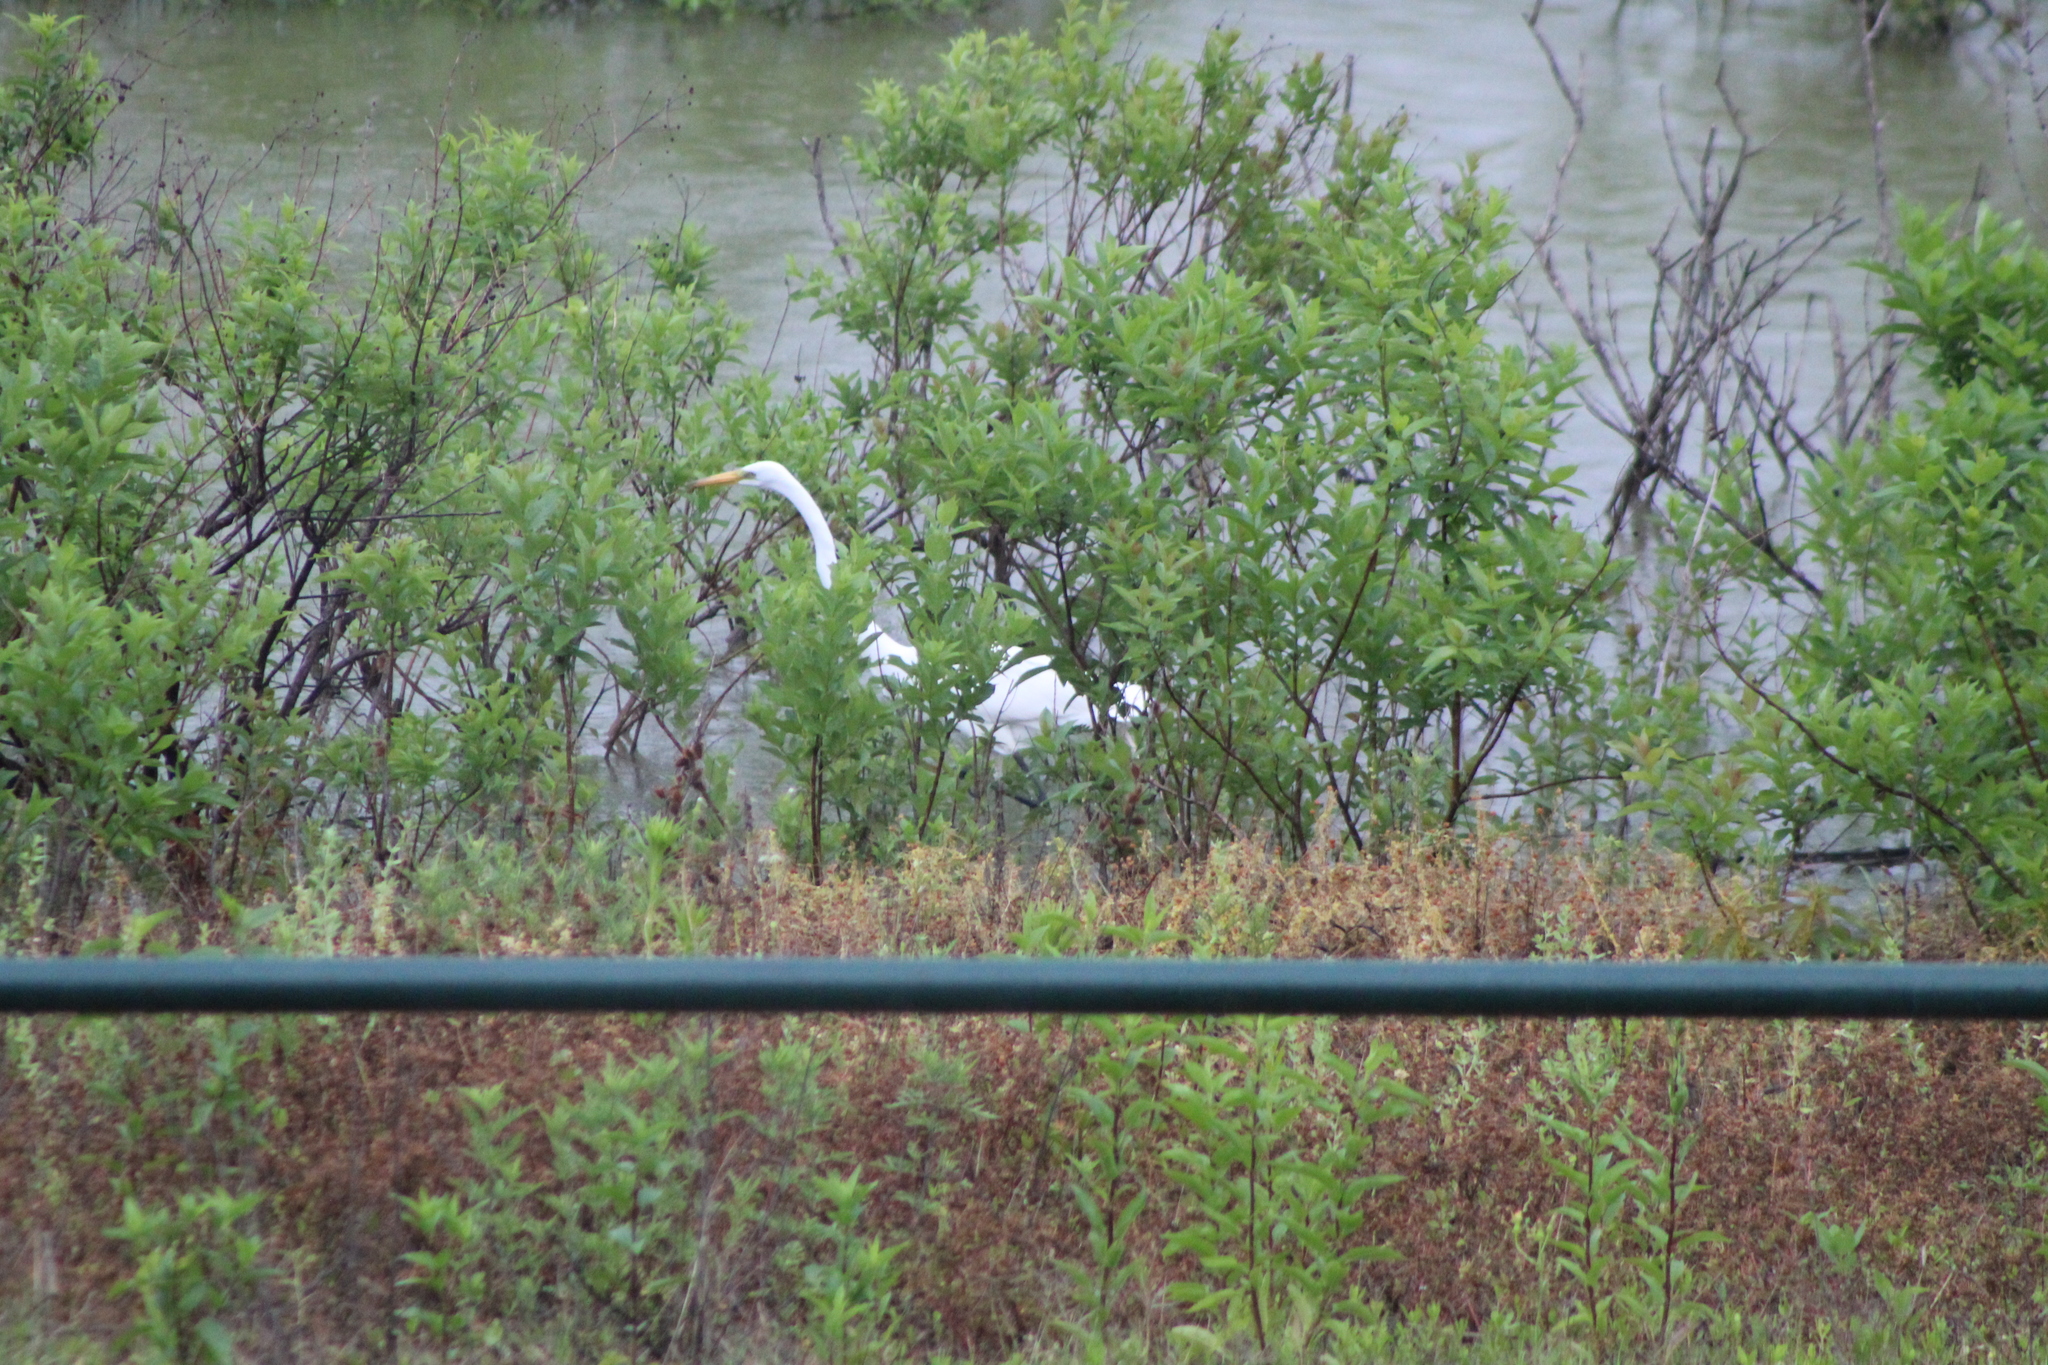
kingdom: Animalia
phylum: Chordata
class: Aves
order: Pelecaniformes
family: Ardeidae
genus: Ardea
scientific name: Ardea alba
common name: Great egret
